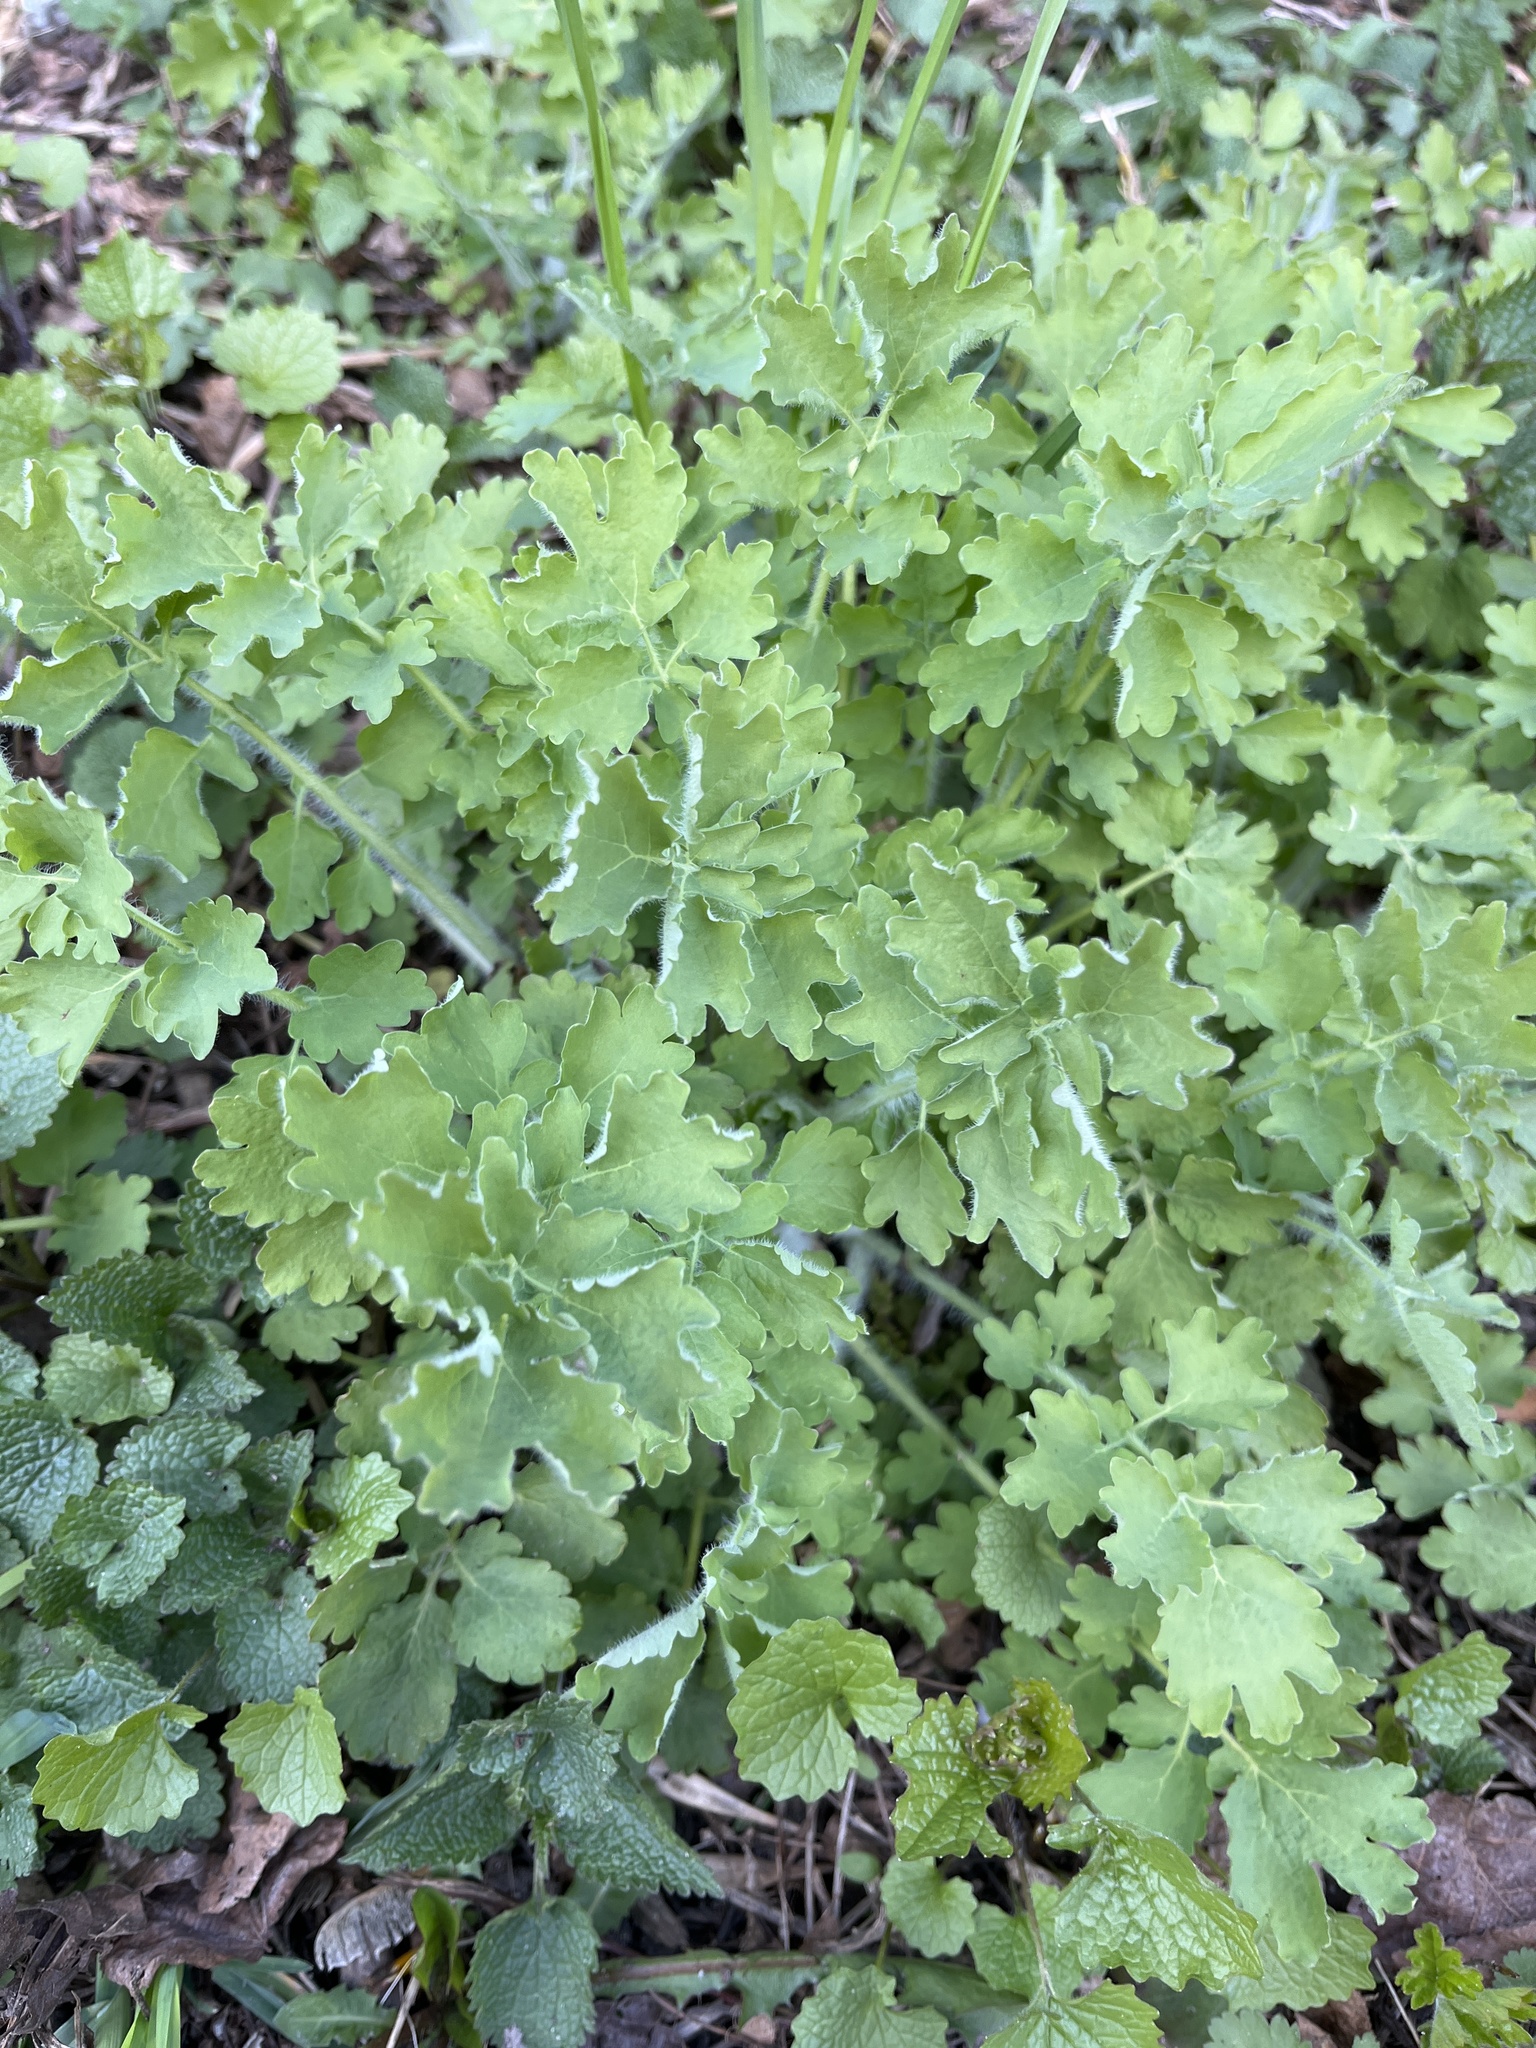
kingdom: Plantae
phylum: Tracheophyta
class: Magnoliopsida
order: Ranunculales
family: Papaveraceae
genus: Chelidonium
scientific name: Chelidonium majus
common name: Greater celandine
